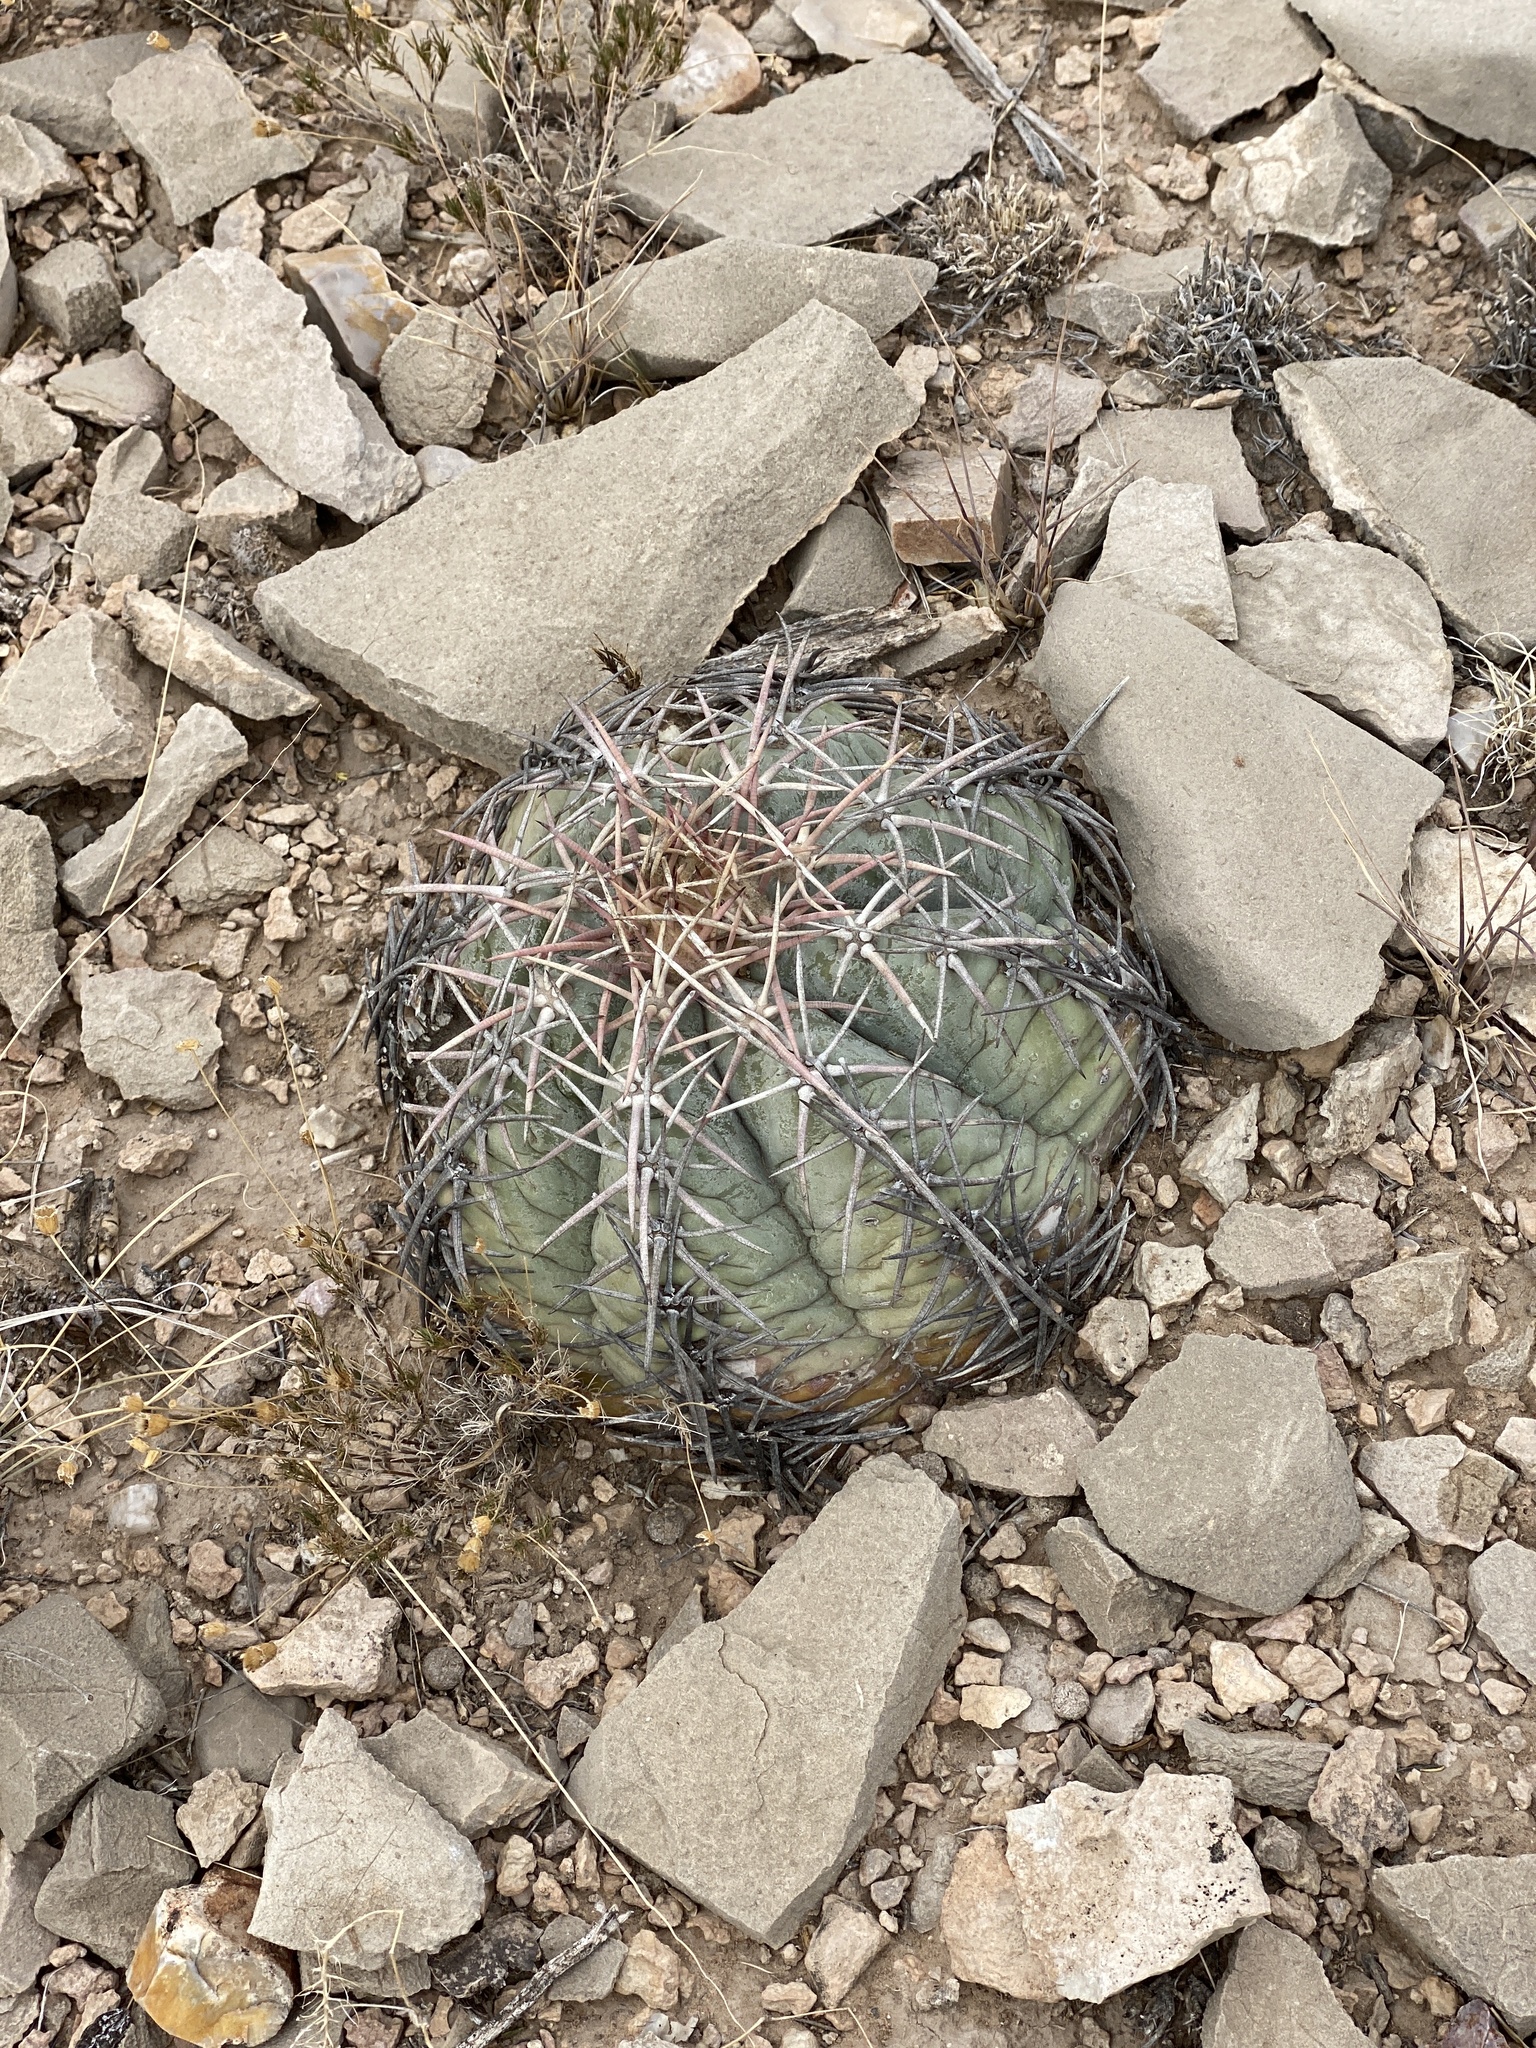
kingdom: Plantae
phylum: Tracheophyta
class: Magnoliopsida
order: Caryophyllales
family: Cactaceae
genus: Echinocactus
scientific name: Echinocactus horizonthalonius
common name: Devilshead
